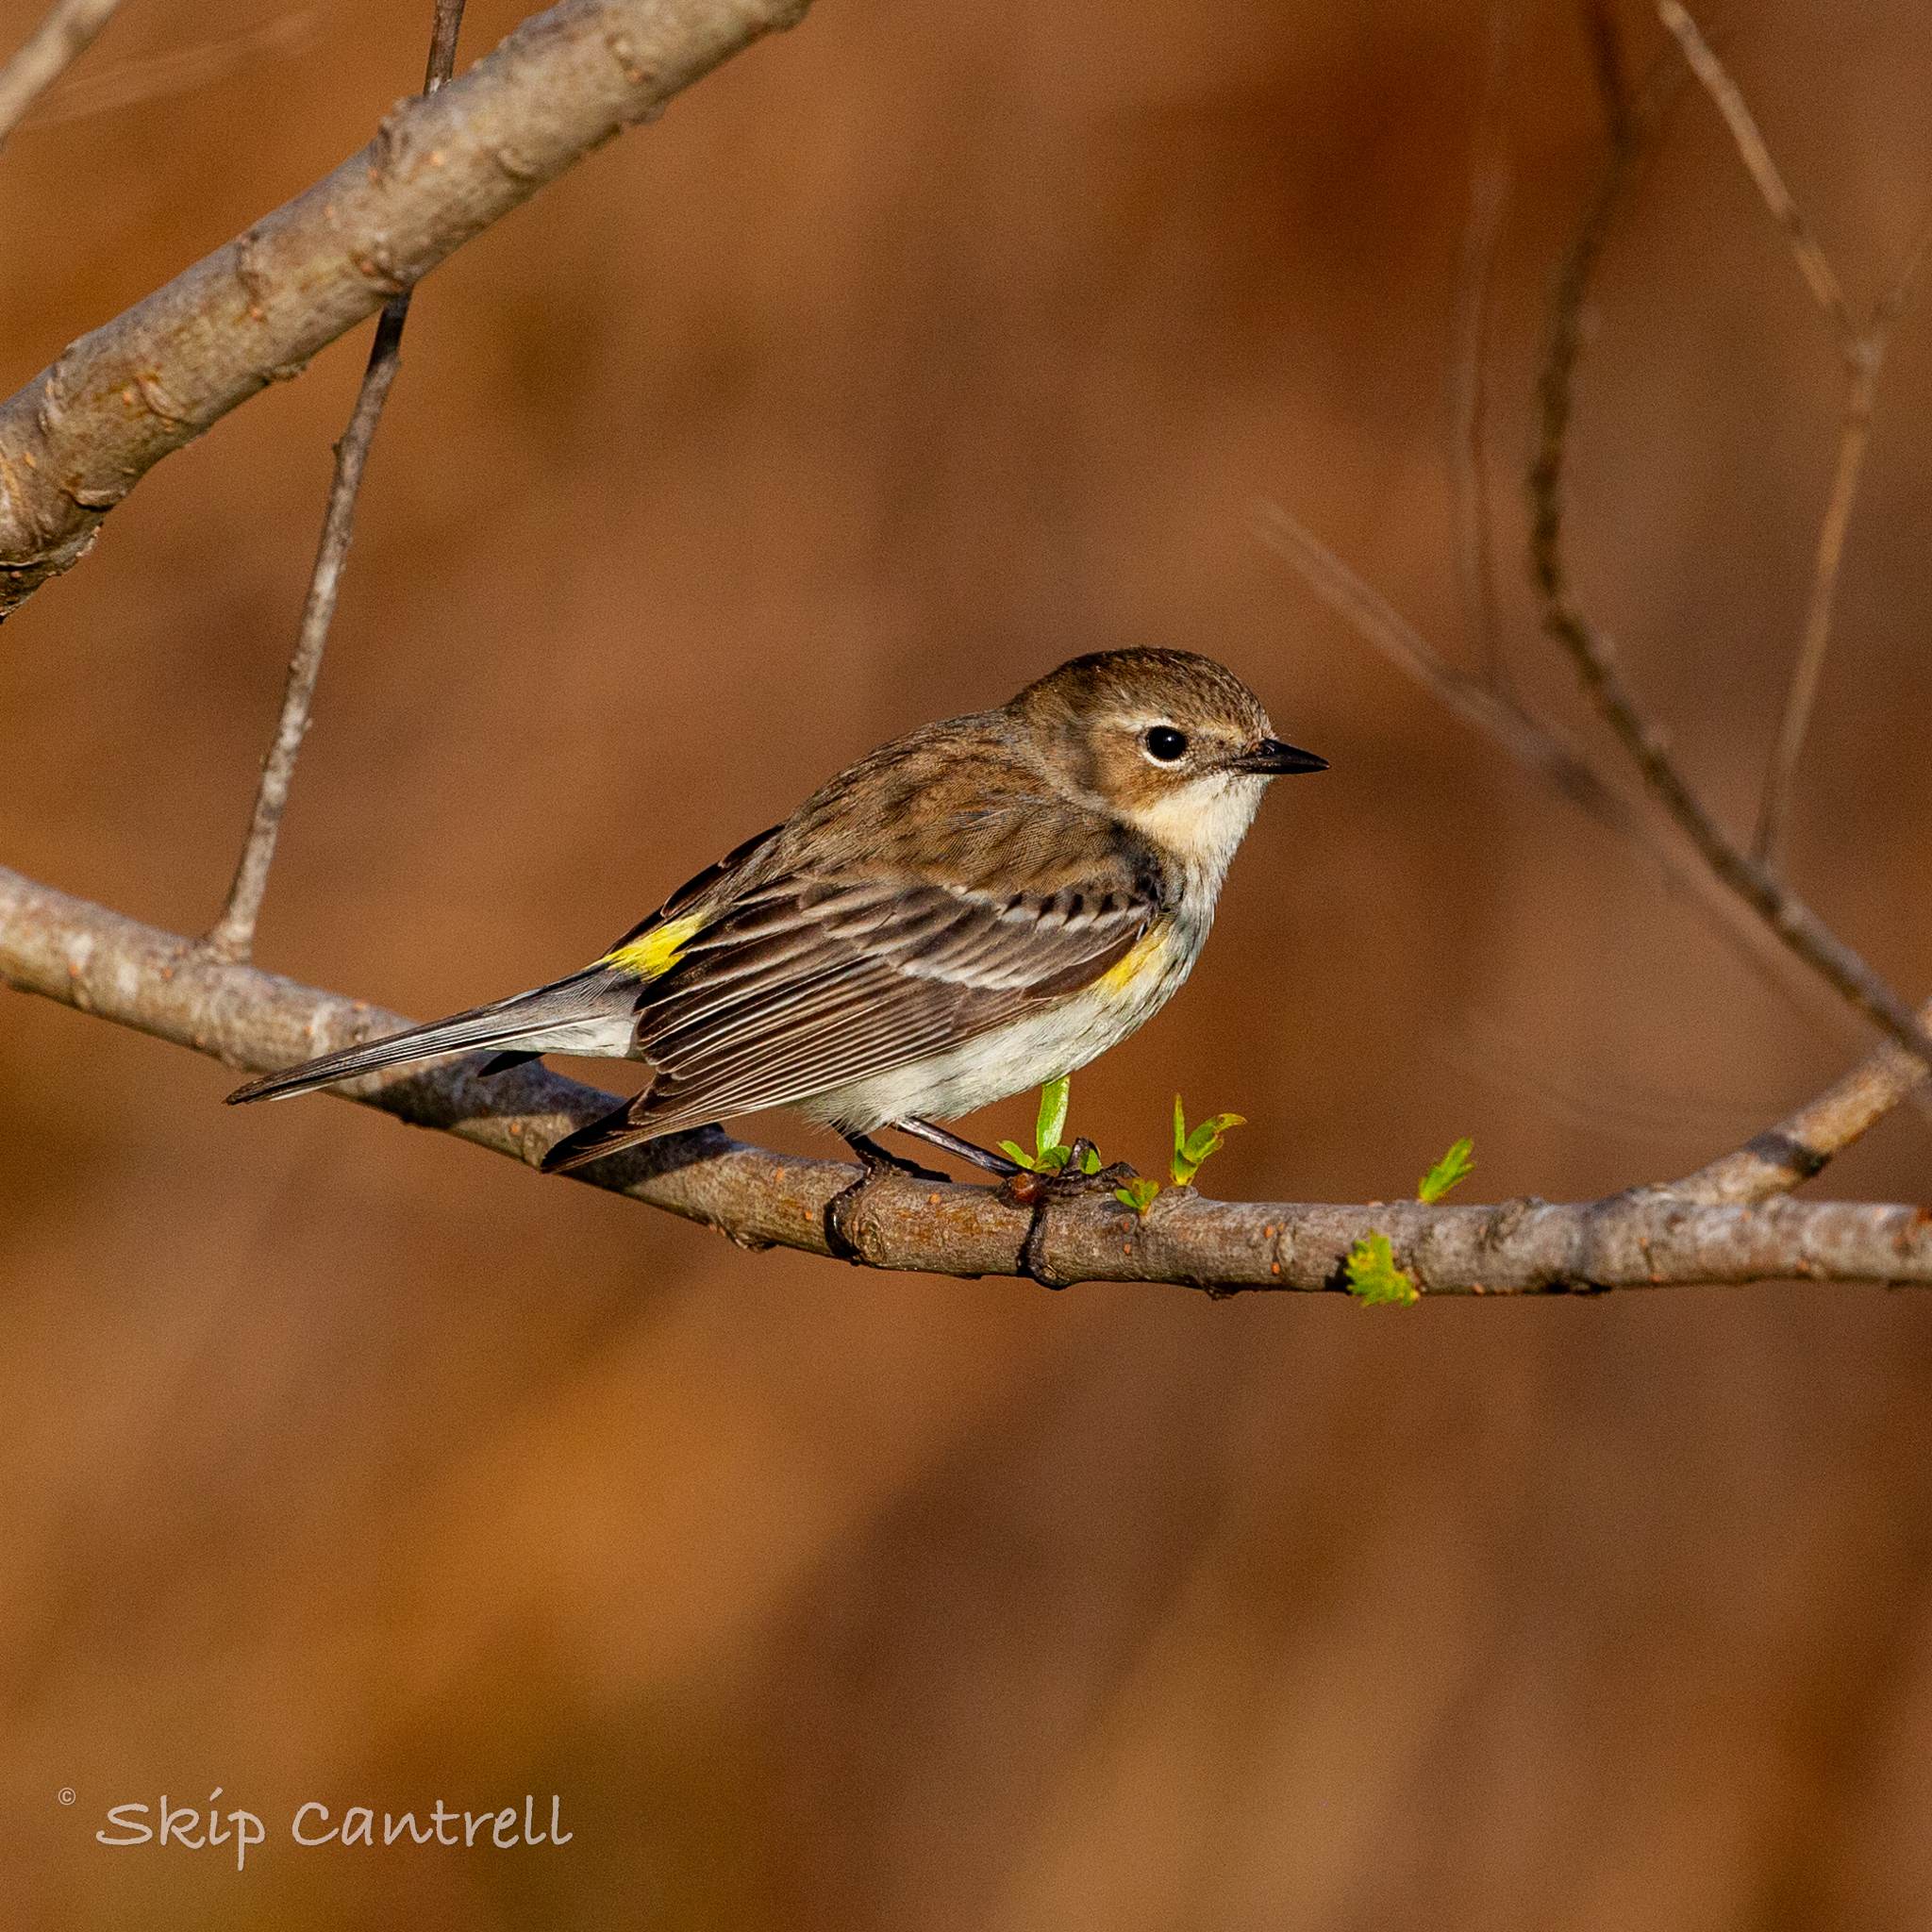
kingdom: Animalia
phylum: Chordata
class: Aves
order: Passeriformes
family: Parulidae
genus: Setophaga
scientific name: Setophaga coronata
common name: Myrtle warbler
